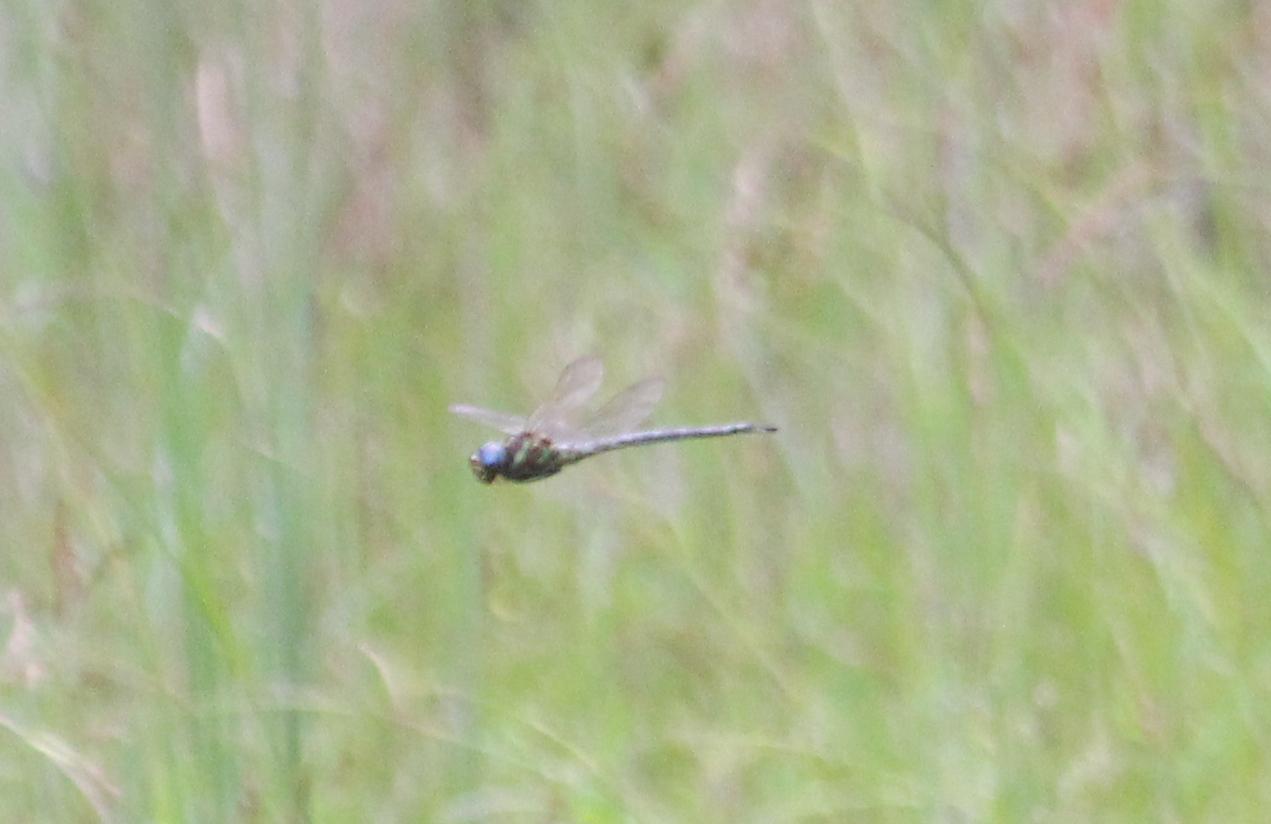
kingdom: Animalia
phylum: Arthropoda
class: Insecta
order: Odonata
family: Aeshnidae
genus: Epiaeschna
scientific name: Epiaeschna heros
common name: Swamp darner
